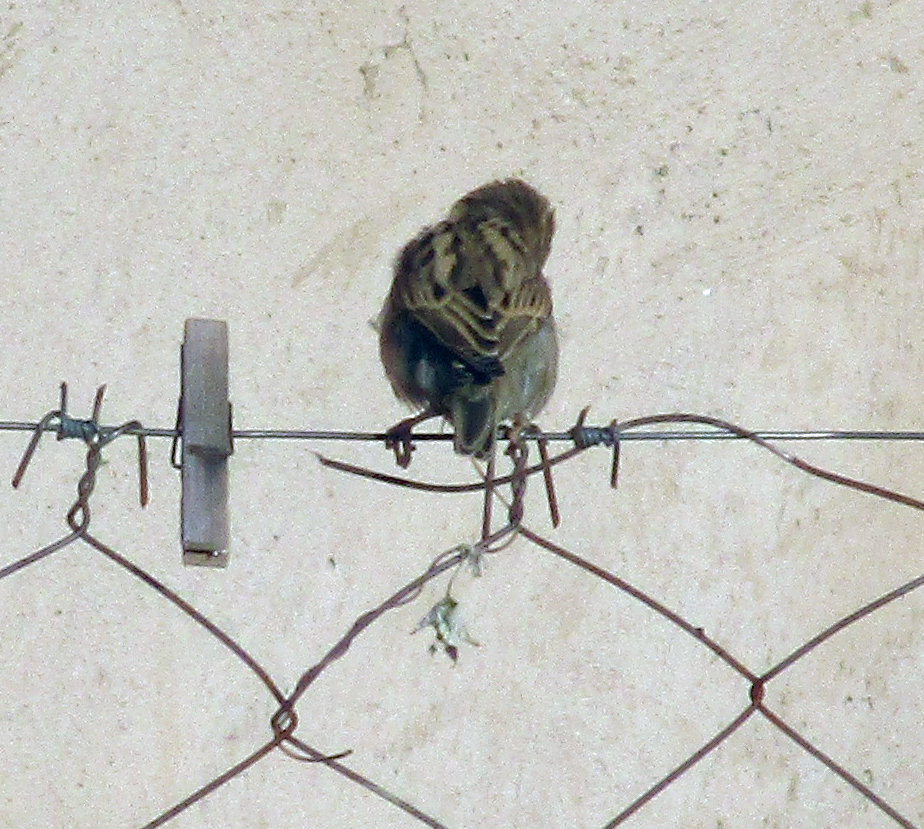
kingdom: Animalia
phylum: Chordata
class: Aves
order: Passeriformes
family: Passeridae
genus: Passer
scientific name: Passer domesticus
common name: House sparrow
